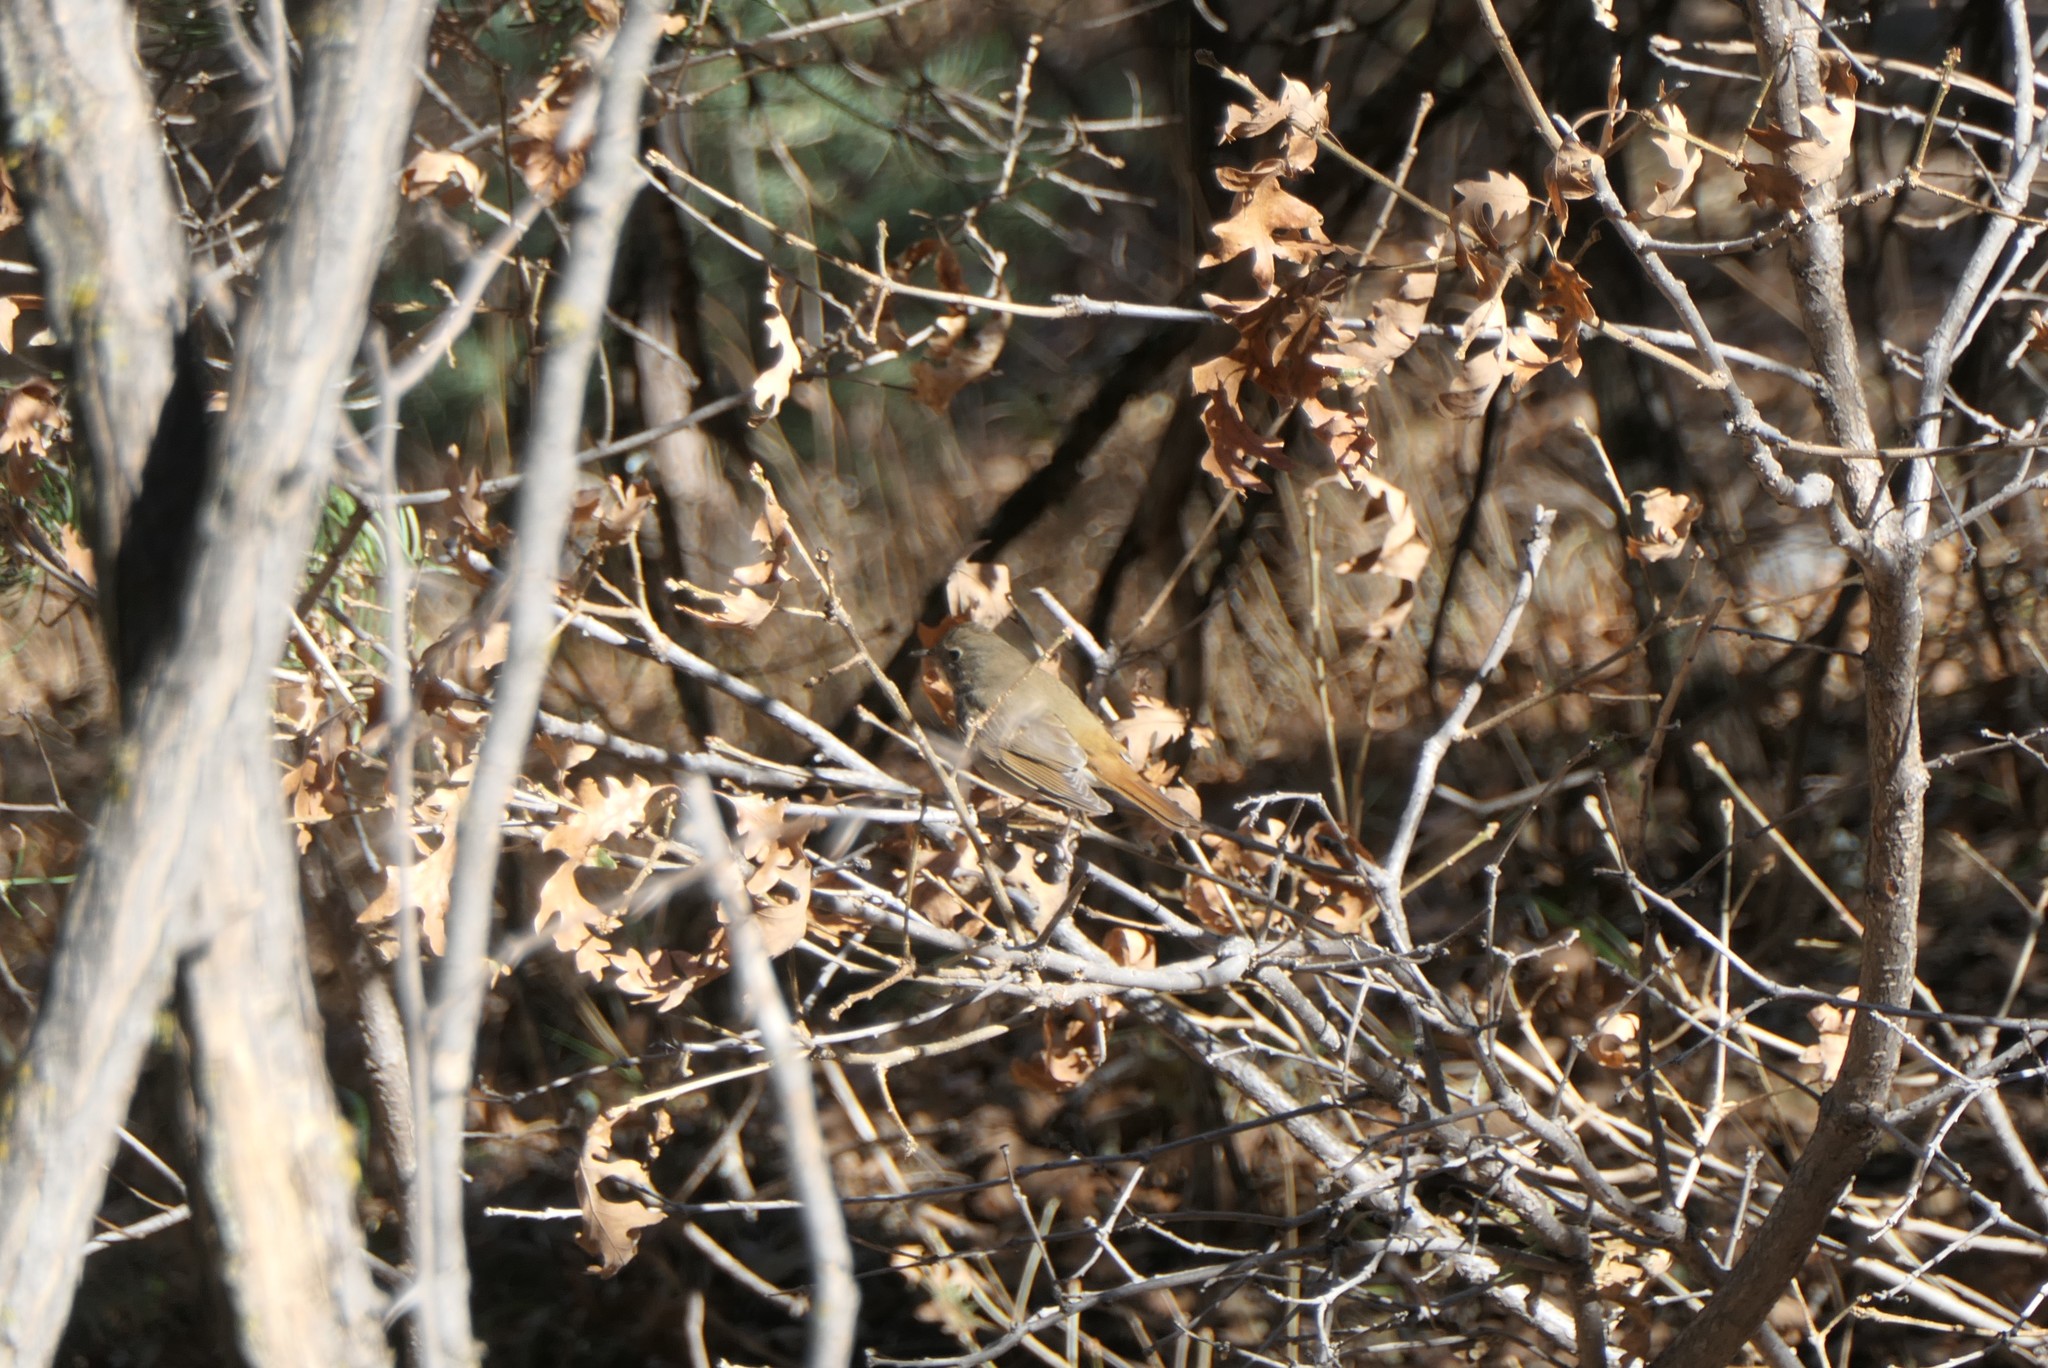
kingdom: Animalia
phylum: Chordata
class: Aves
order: Passeriformes
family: Turdidae
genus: Catharus
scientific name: Catharus guttatus
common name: Hermit thrush
